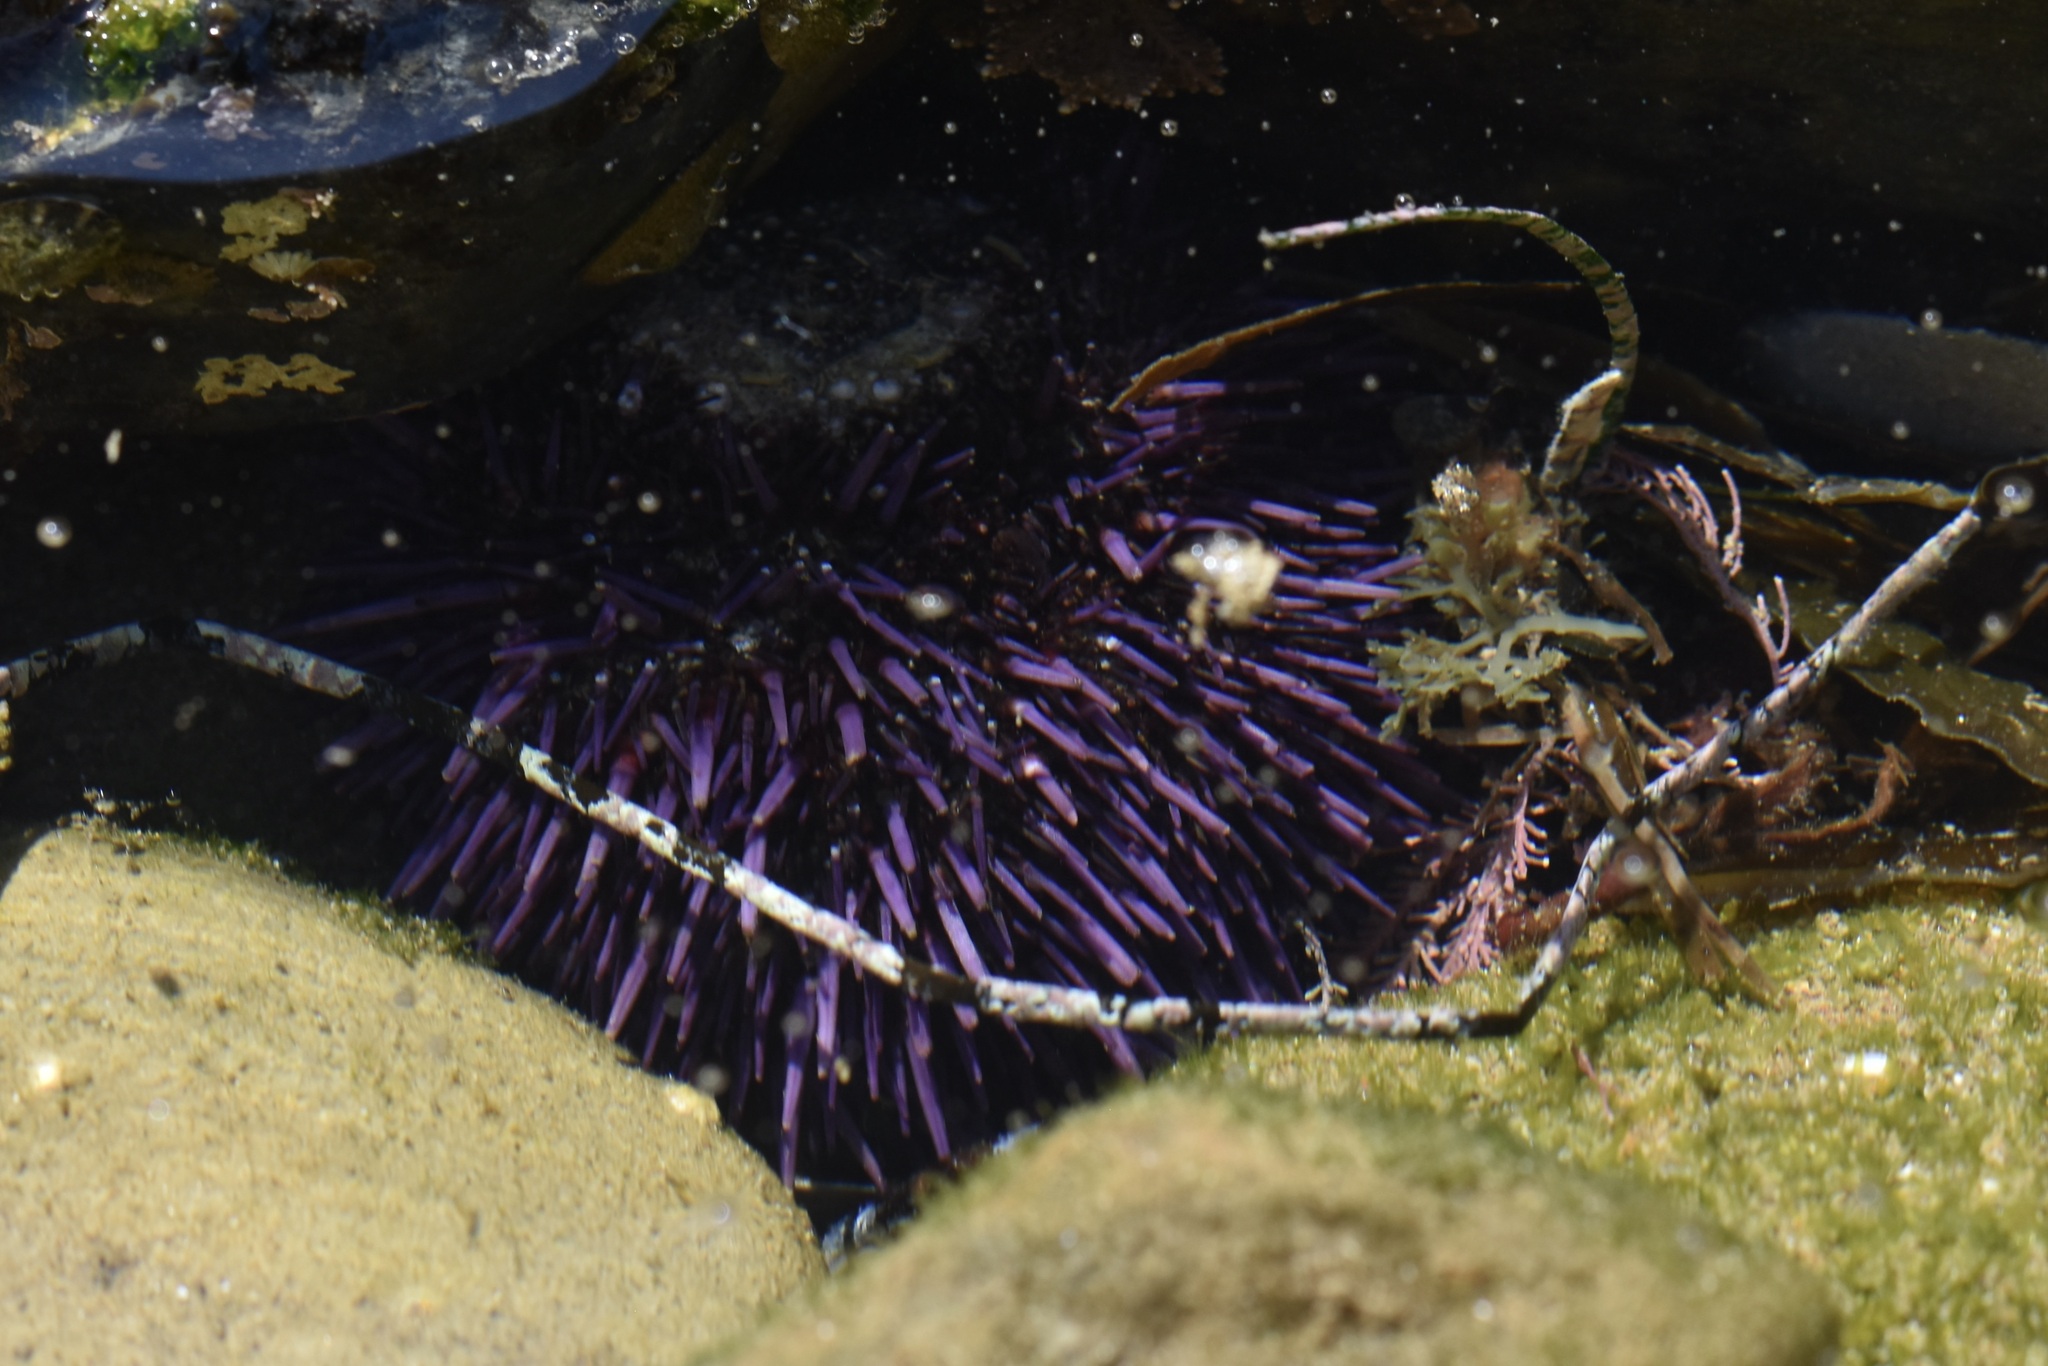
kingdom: Animalia
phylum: Echinodermata
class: Echinoidea
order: Camarodonta
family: Strongylocentrotidae
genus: Strongylocentrotus
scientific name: Strongylocentrotus purpuratus
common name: Purple sea urchin
